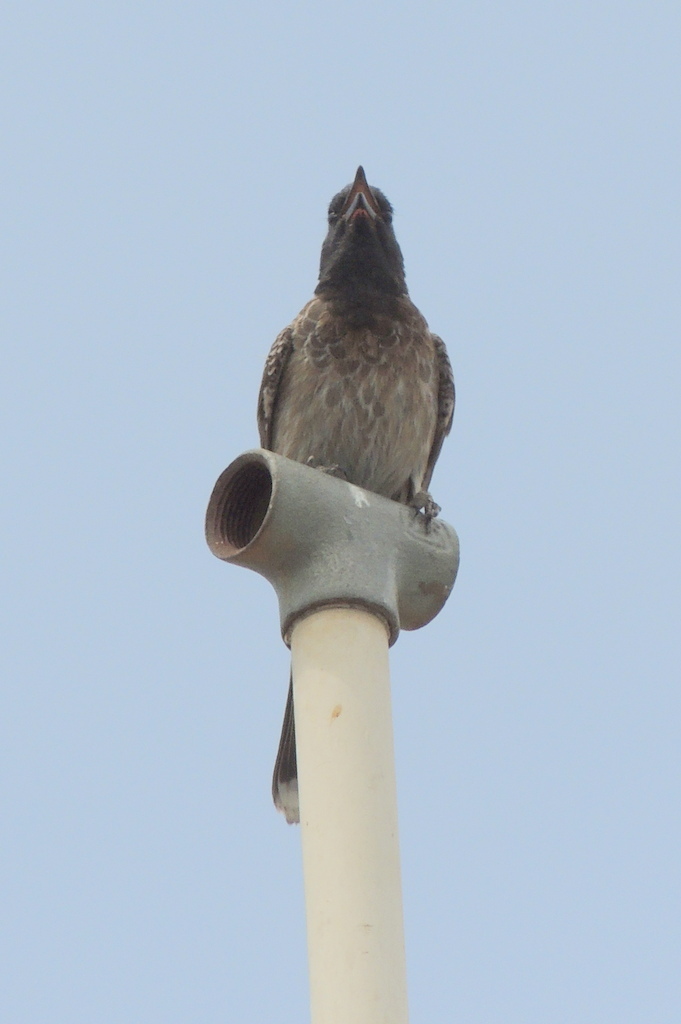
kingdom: Animalia
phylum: Chordata
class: Aves
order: Passeriformes
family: Pycnonotidae
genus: Pycnonotus
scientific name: Pycnonotus cafer
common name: Red-vented bulbul
